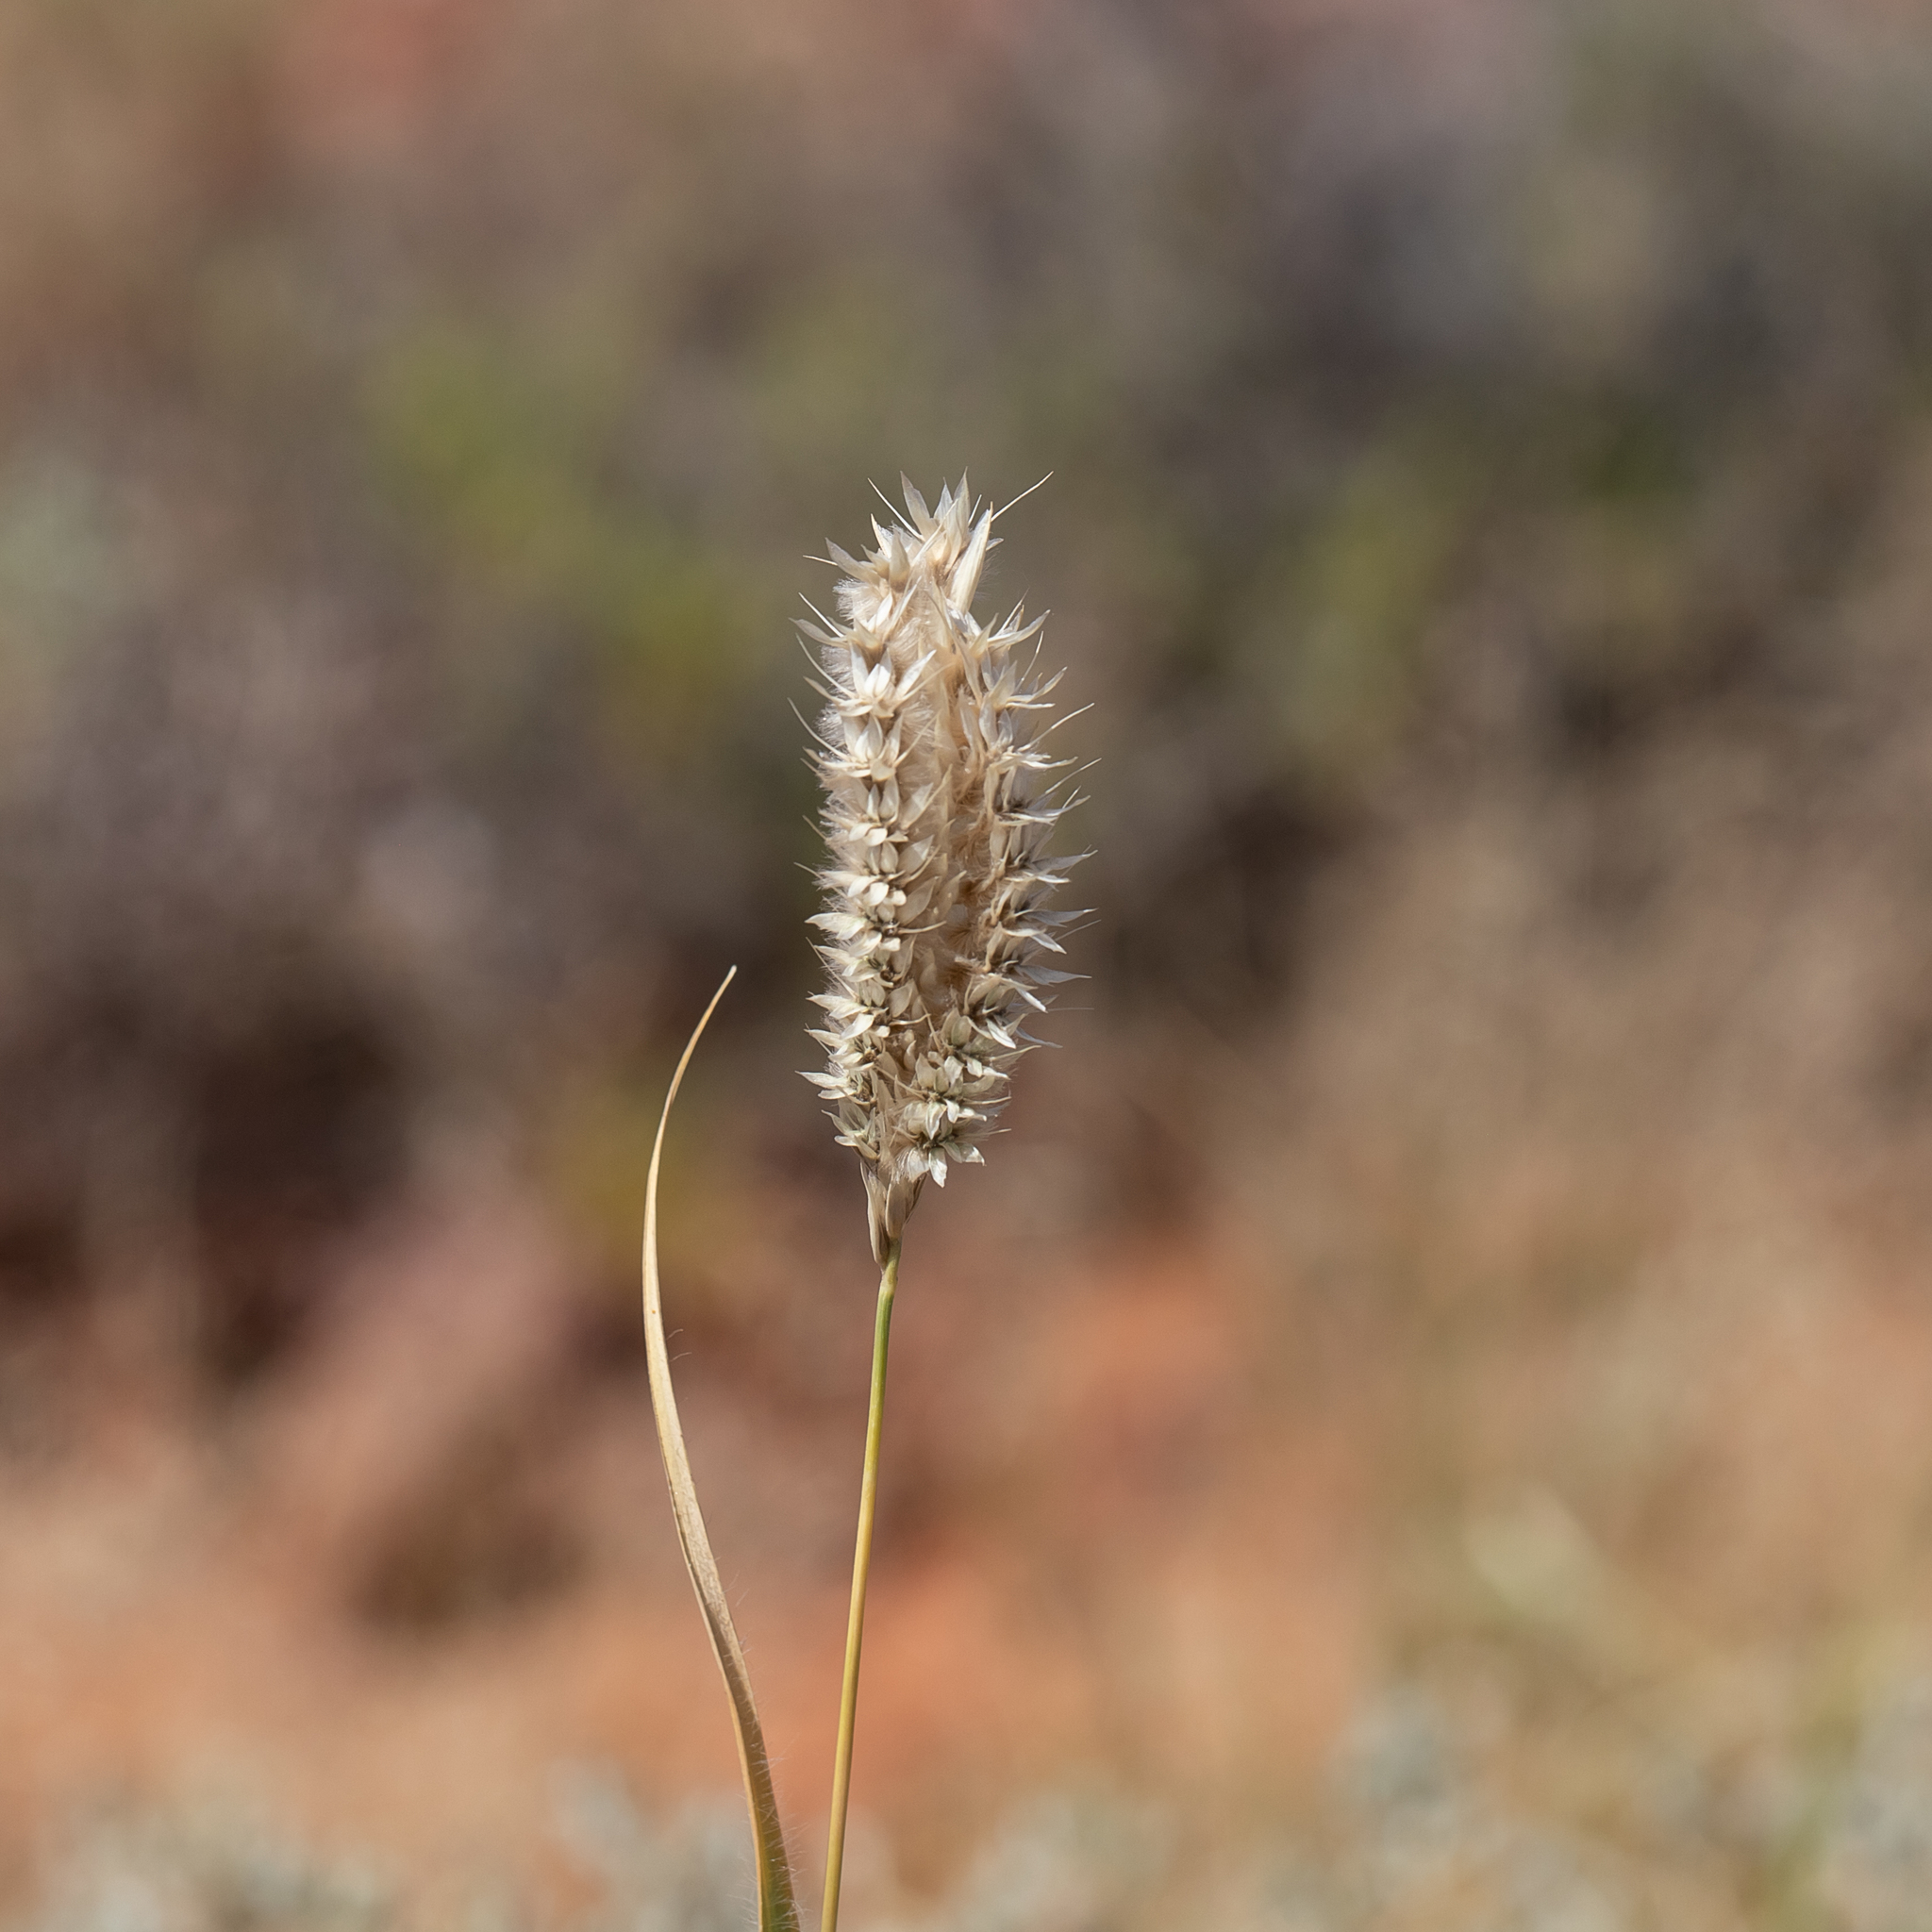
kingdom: Plantae
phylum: Tracheophyta
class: Liliopsida
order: Poales
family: Poaceae
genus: Astrebla
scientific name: Astrebla pectinata
